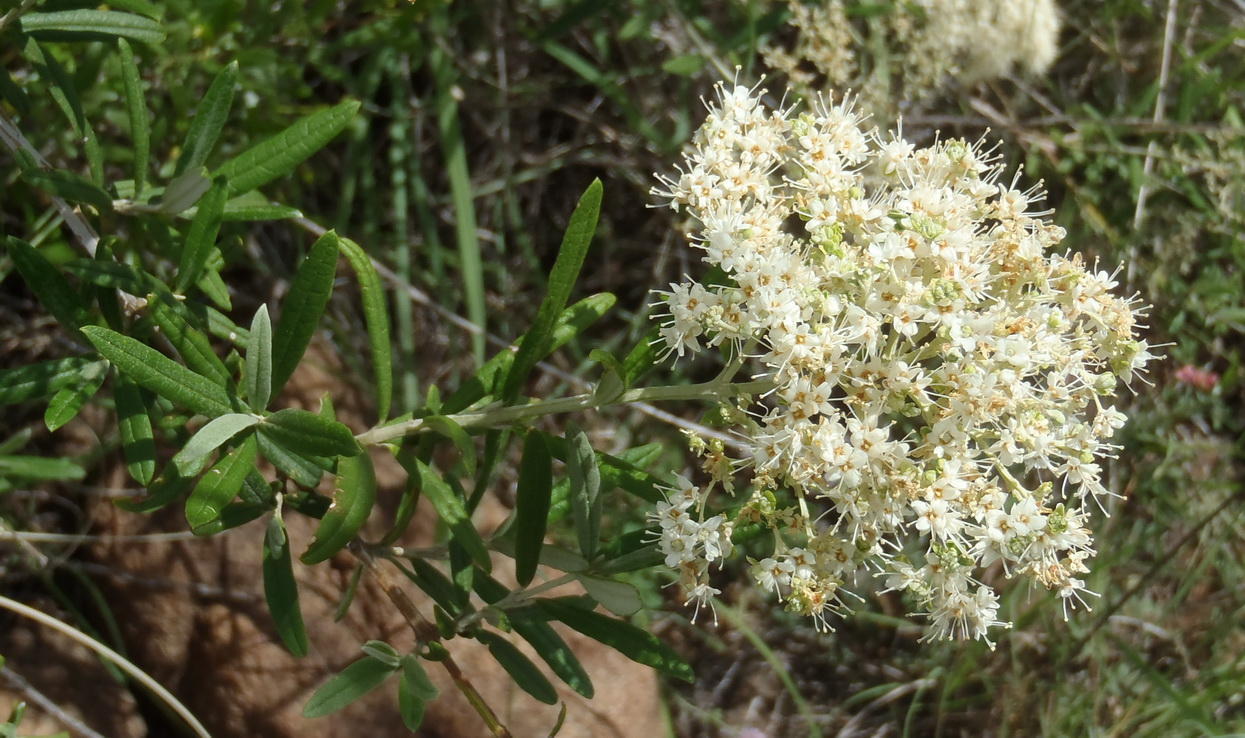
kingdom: Plantae
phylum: Tracheophyta
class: Magnoliopsida
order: Lamiales
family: Scrophulariaceae
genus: Buddleja
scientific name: Buddleja saligna
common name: False olive
